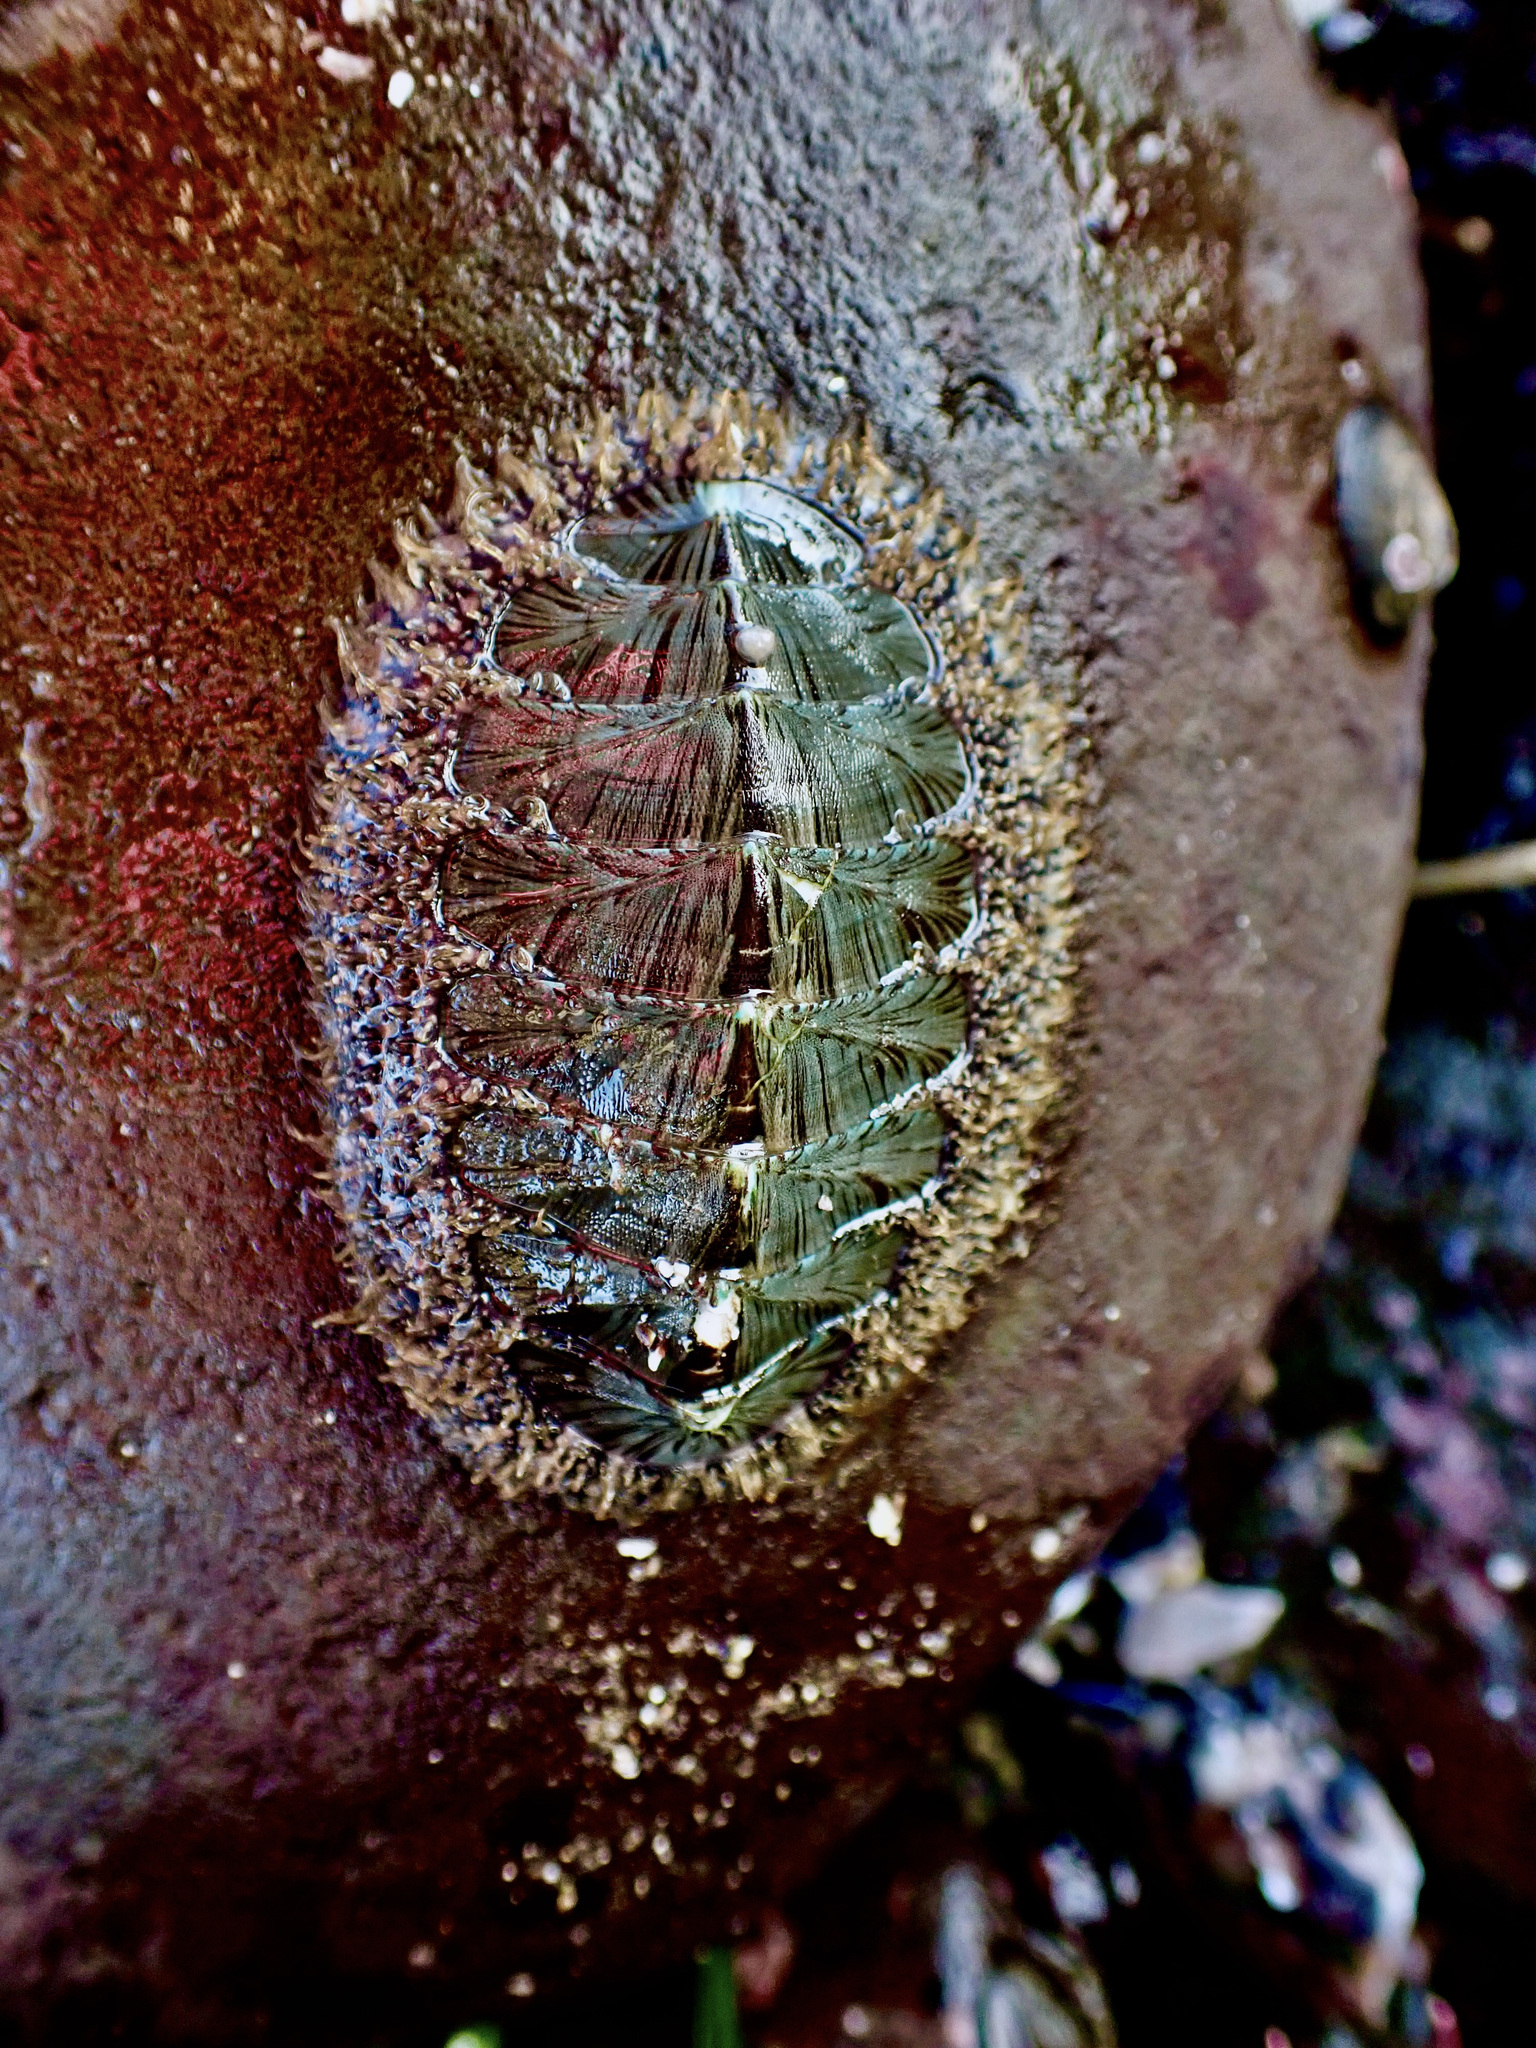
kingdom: Animalia
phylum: Mollusca
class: Polyplacophora
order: Chitonida
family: Mopaliidae
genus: Mopalia
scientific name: Mopalia lignosa
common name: Woody chiton
